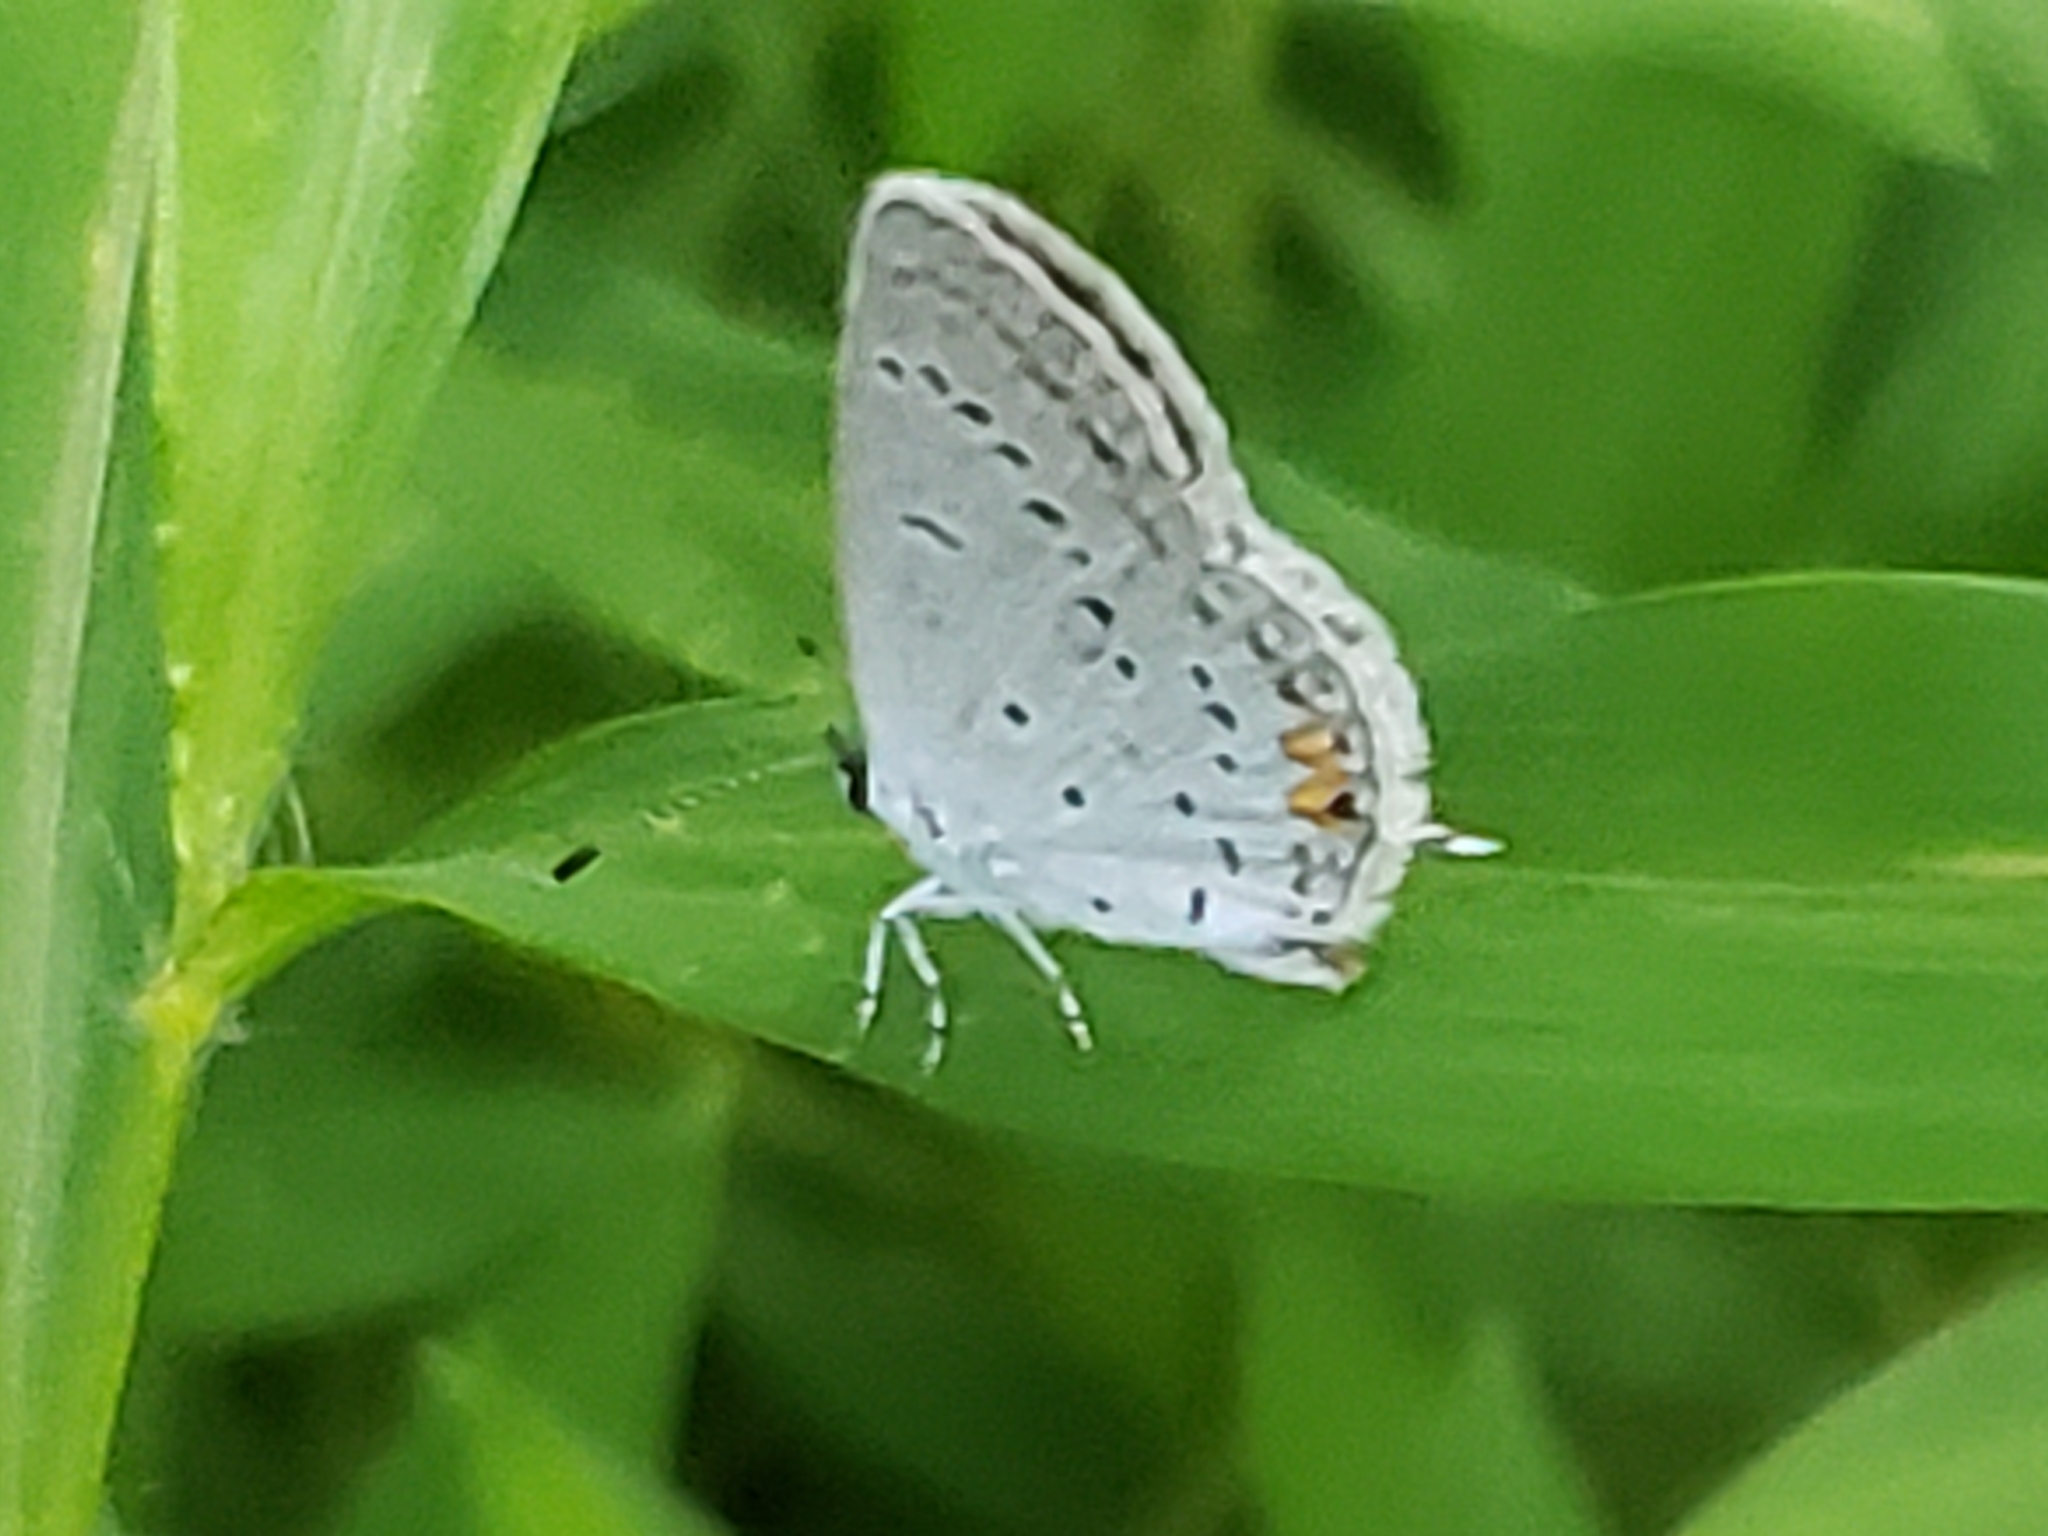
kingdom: Animalia
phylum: Arthropoda
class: Insecta
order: Lepidoptera
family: Lycaenidae
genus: Elkalyce
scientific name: Elkalyce comyntas
